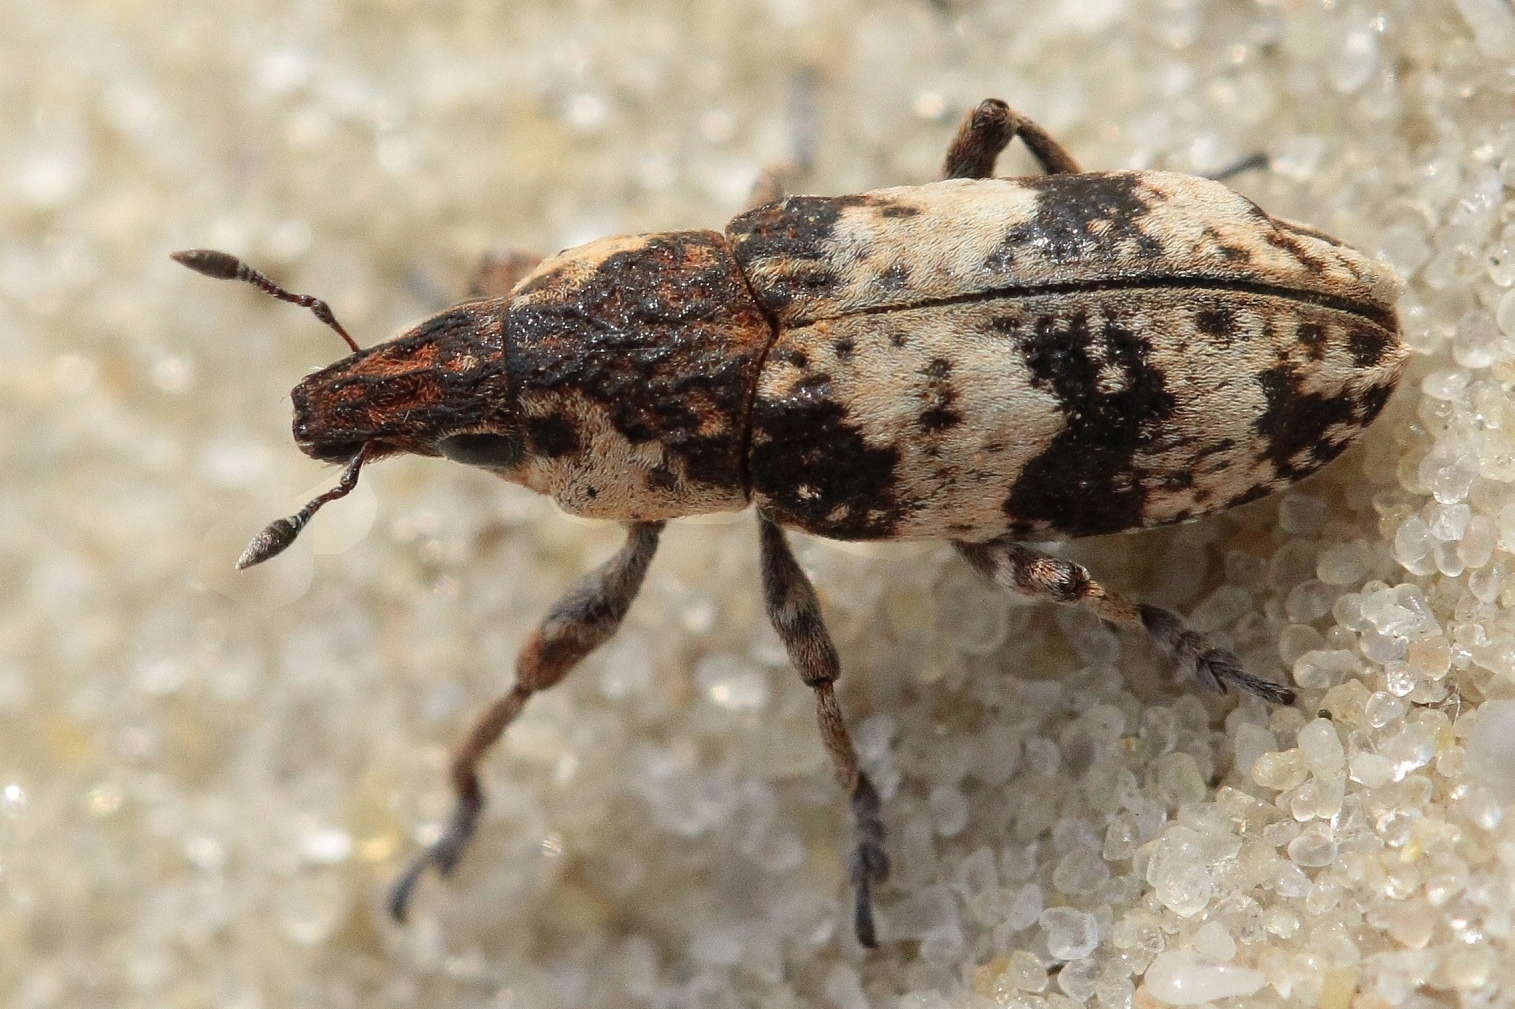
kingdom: Animalia
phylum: Arthropoda
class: Insecta
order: Coleoptera
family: Curculionidae
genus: Bothynoderes
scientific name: Bothynoderes affinis
